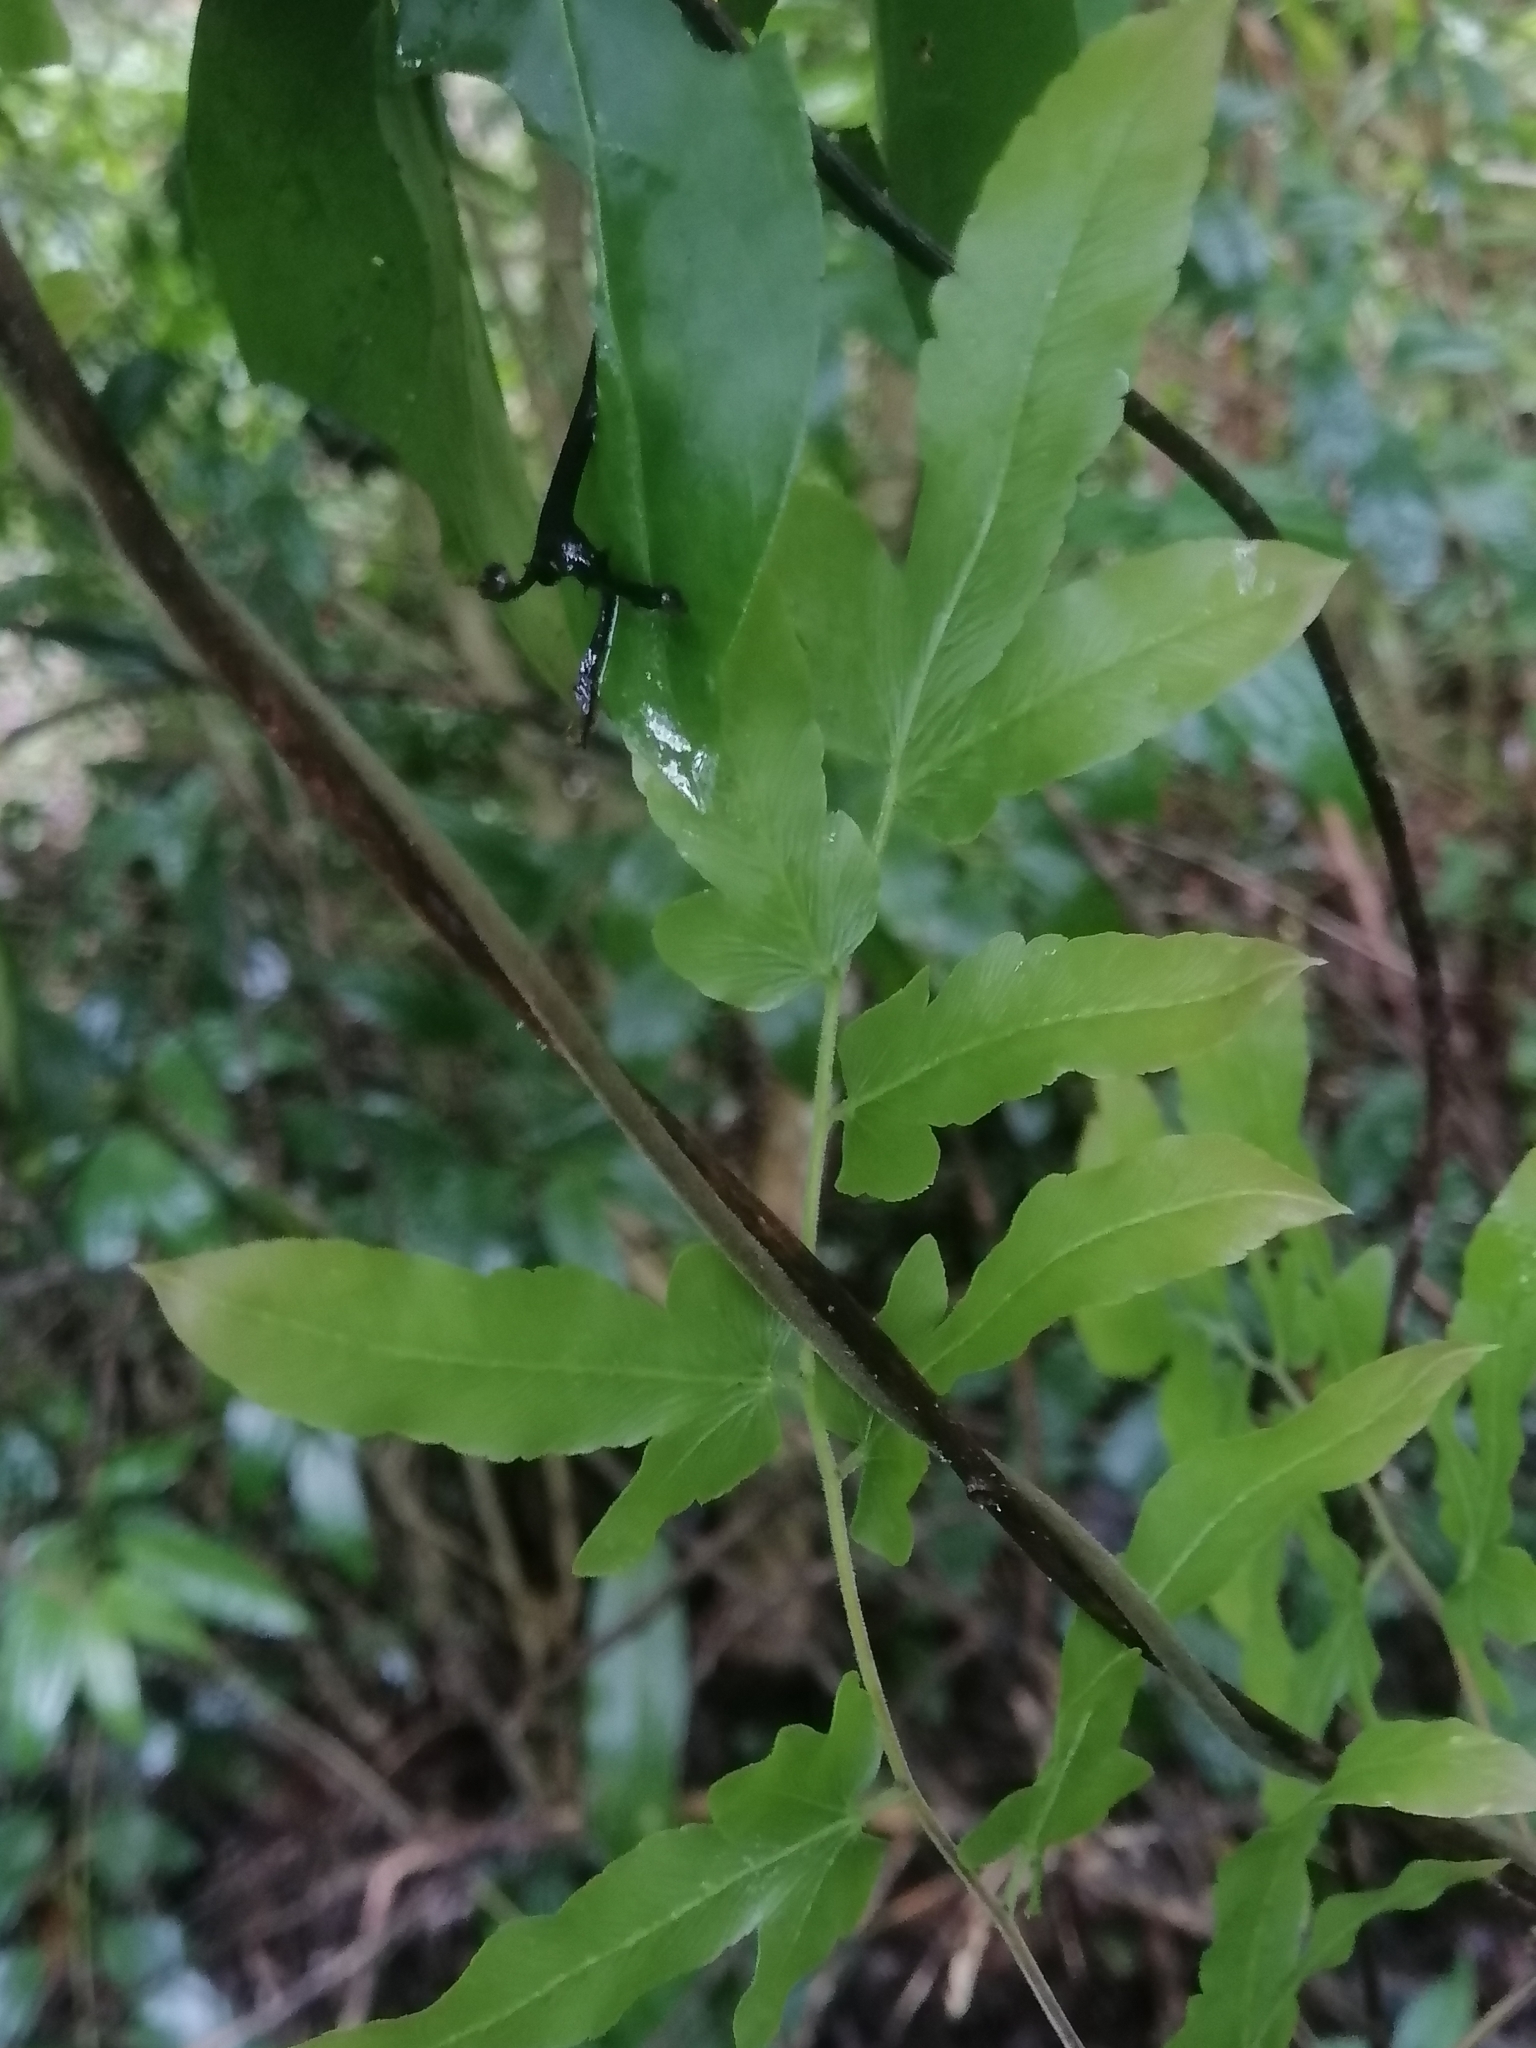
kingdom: Plantae
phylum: Tracheophyta
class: Polypodiopsida
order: Schizaeales
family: Lygodiaceae
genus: Lygodium
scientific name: Lygodium venustum
